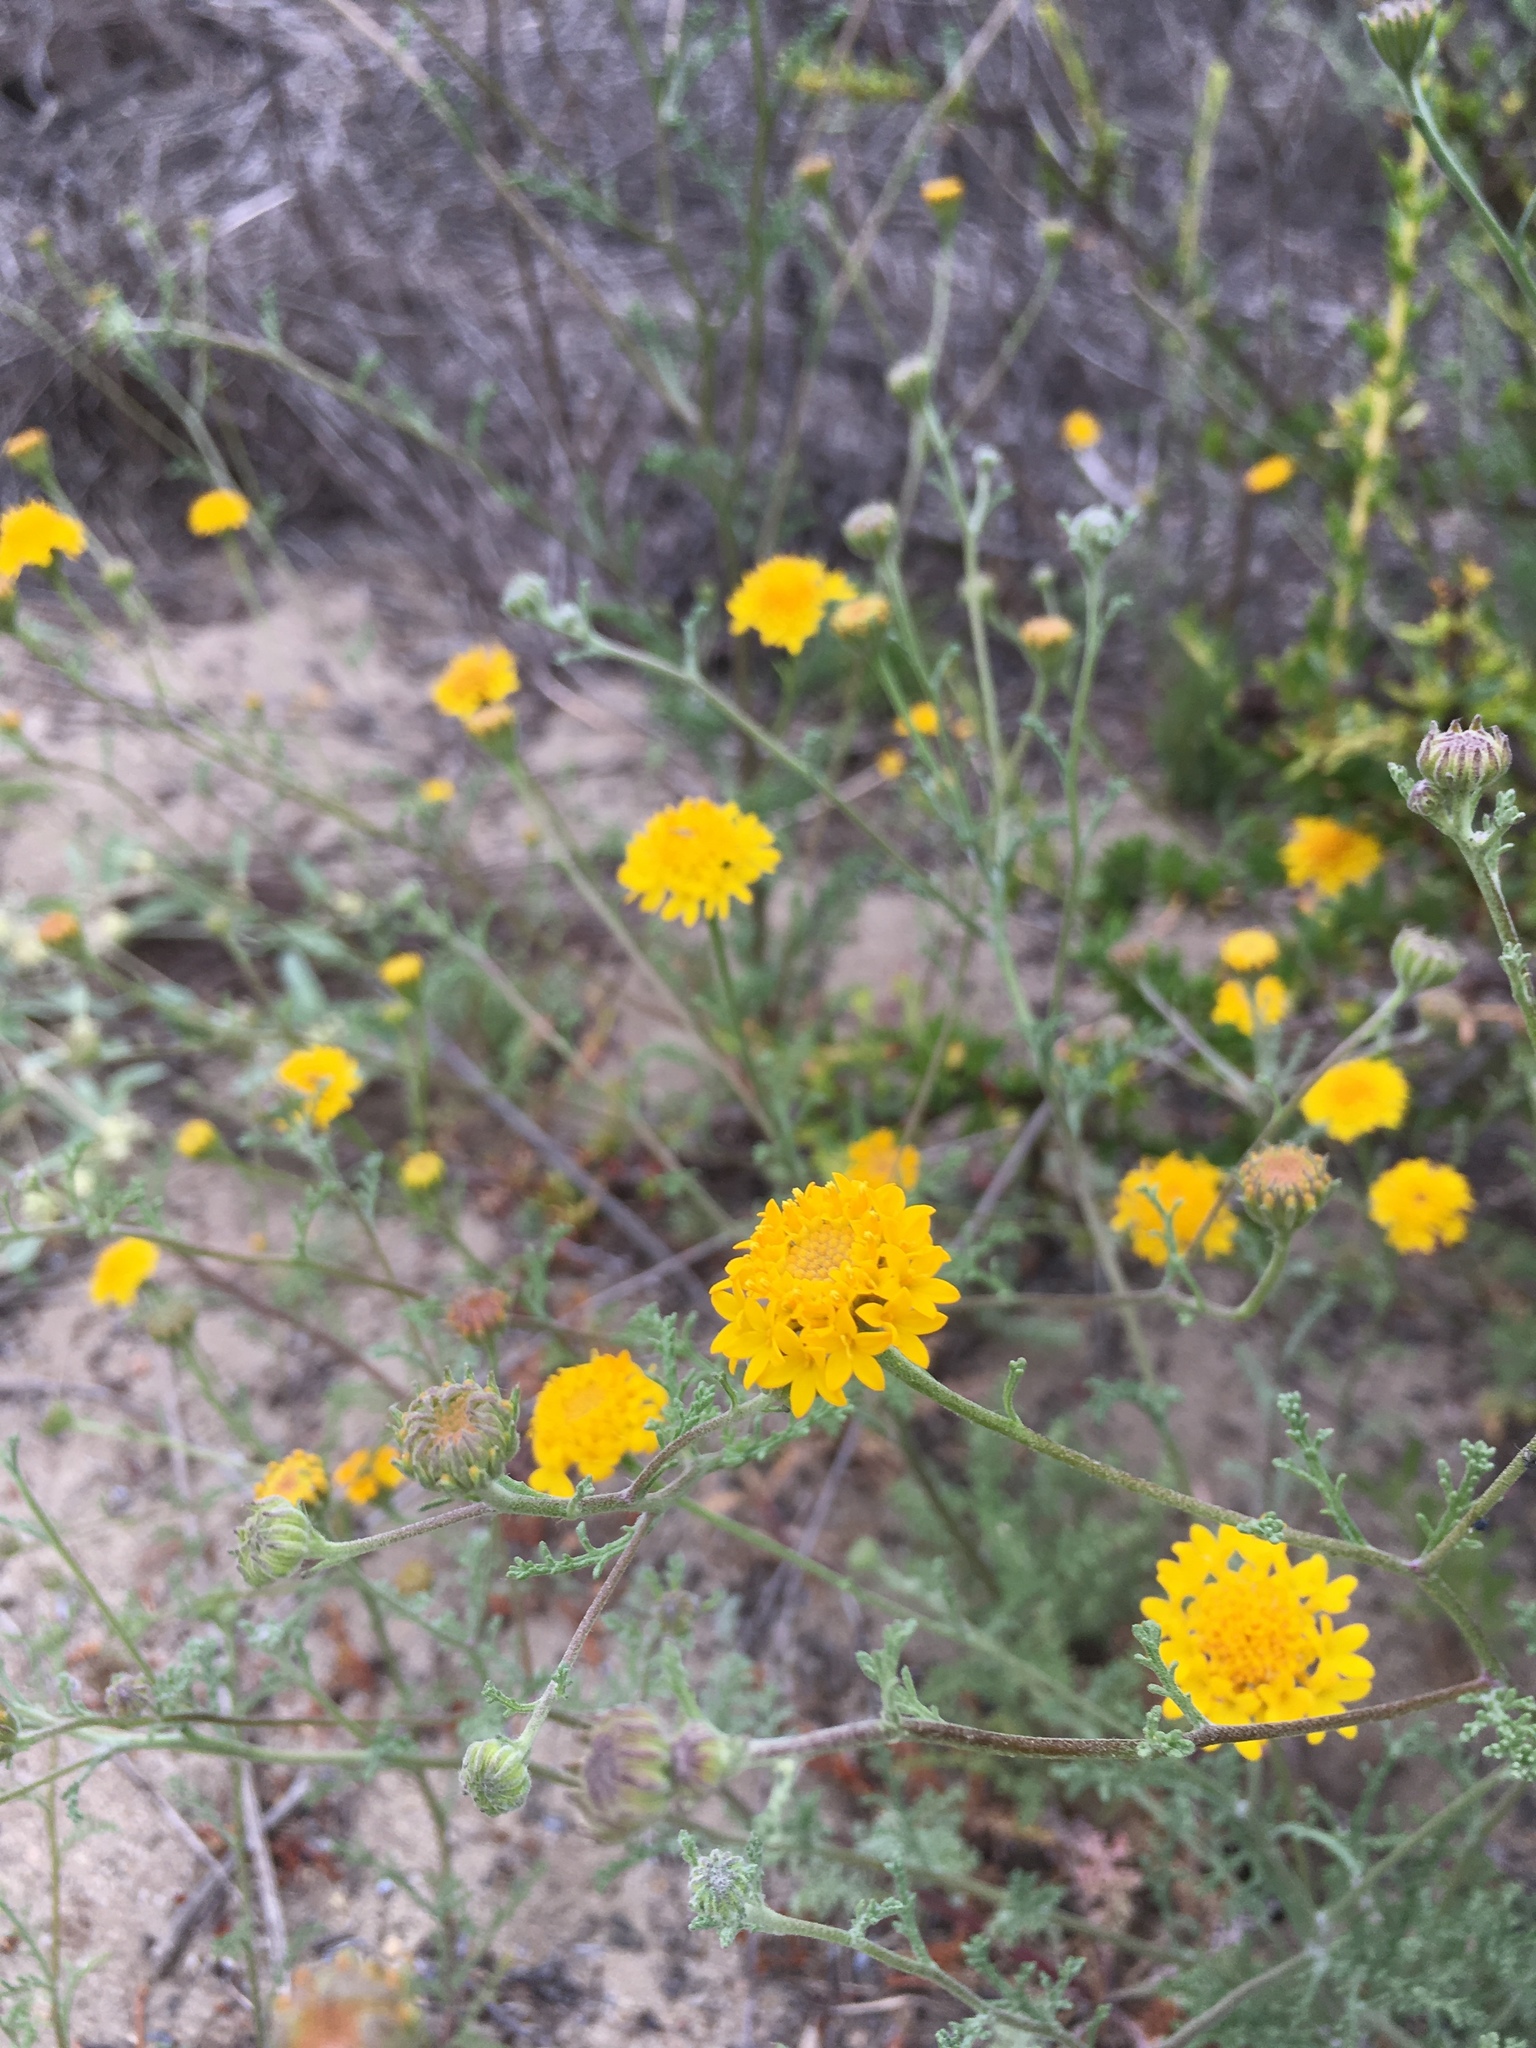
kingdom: Plantae
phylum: Tracheophyta
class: Magnoliopsida
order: Asterales
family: Asteraceae
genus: Chaenactis
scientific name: Chaenactis glabriuscula
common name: Yellow pincushion
